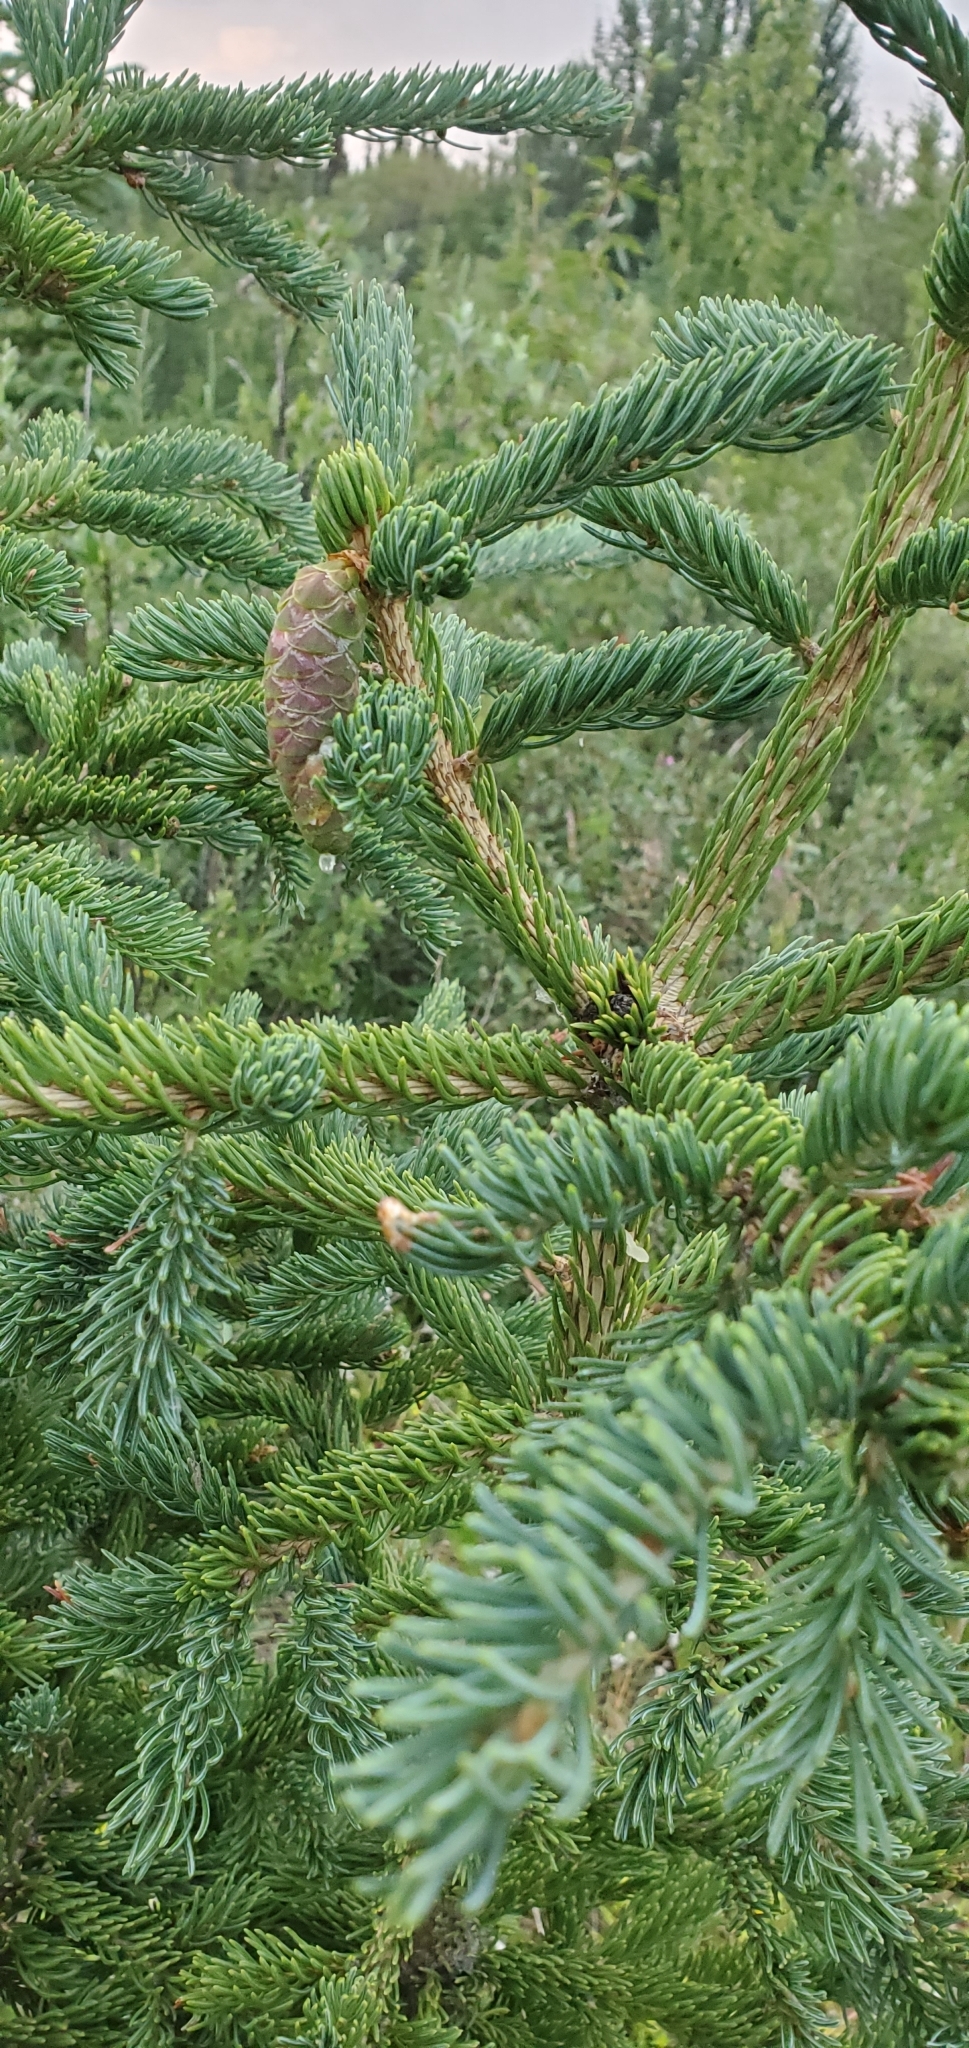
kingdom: Plantae
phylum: Tracheophyta
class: Pinopsida
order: Pinales
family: Pinaceae
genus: Picea
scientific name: Picea glauca
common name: White spruce
